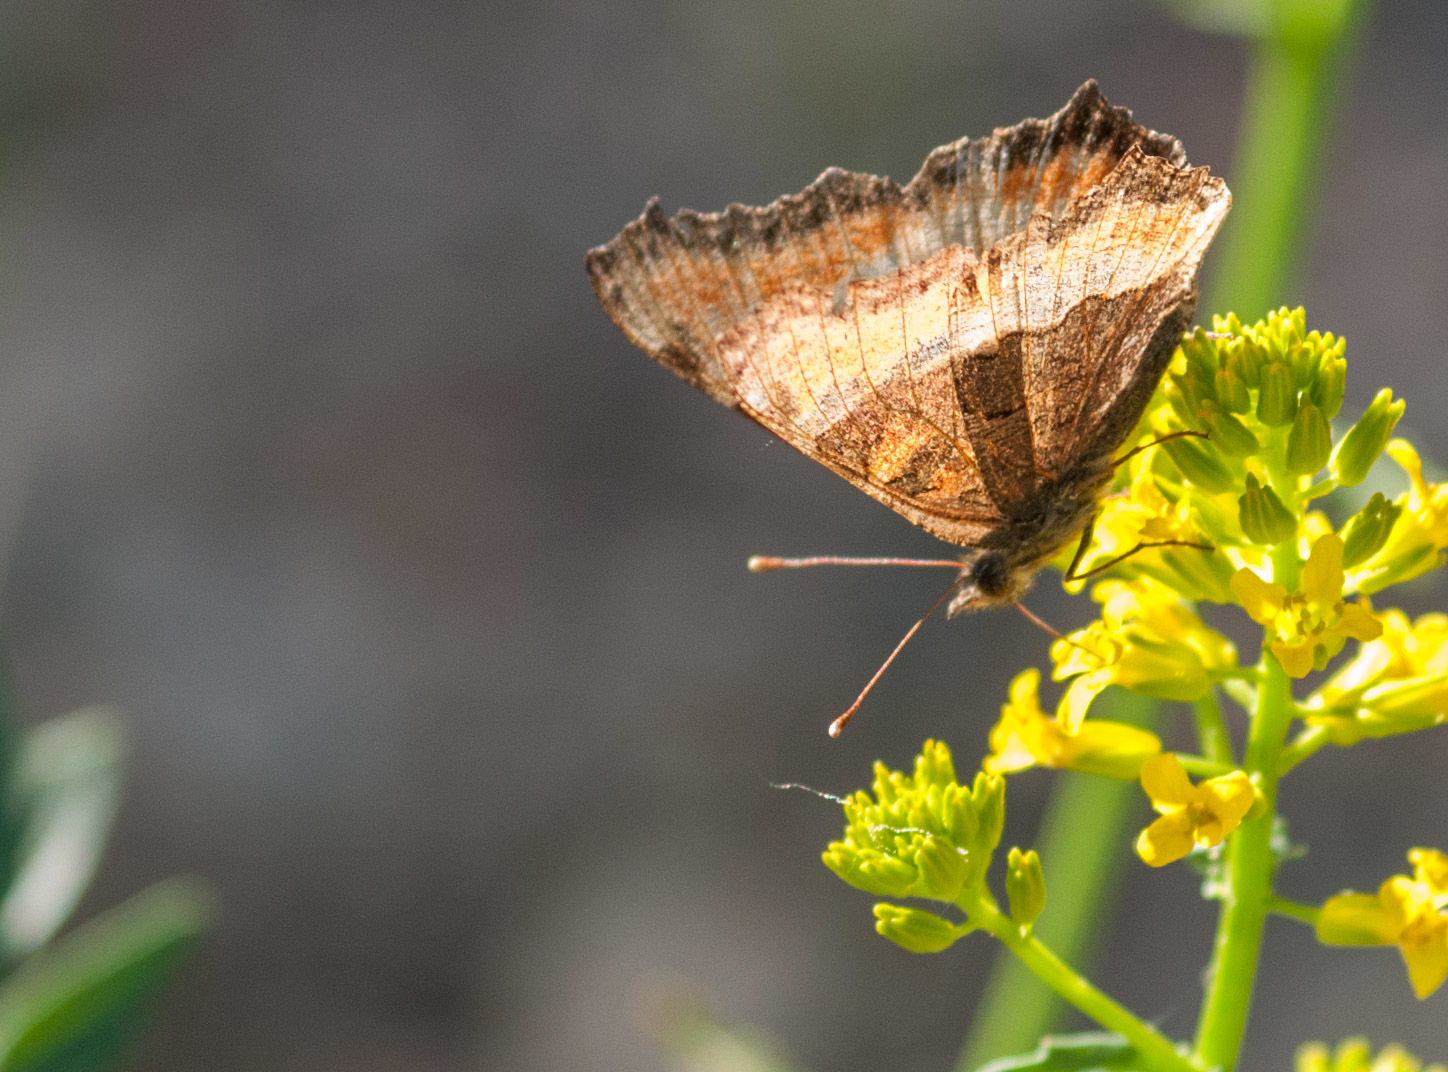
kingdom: Animalia
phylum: Arthropoda
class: Insecta
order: Lepidoptera
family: Nymphalidae
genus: Aglais
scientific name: Aglais milberti
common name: Milbert's tortoiseshell
